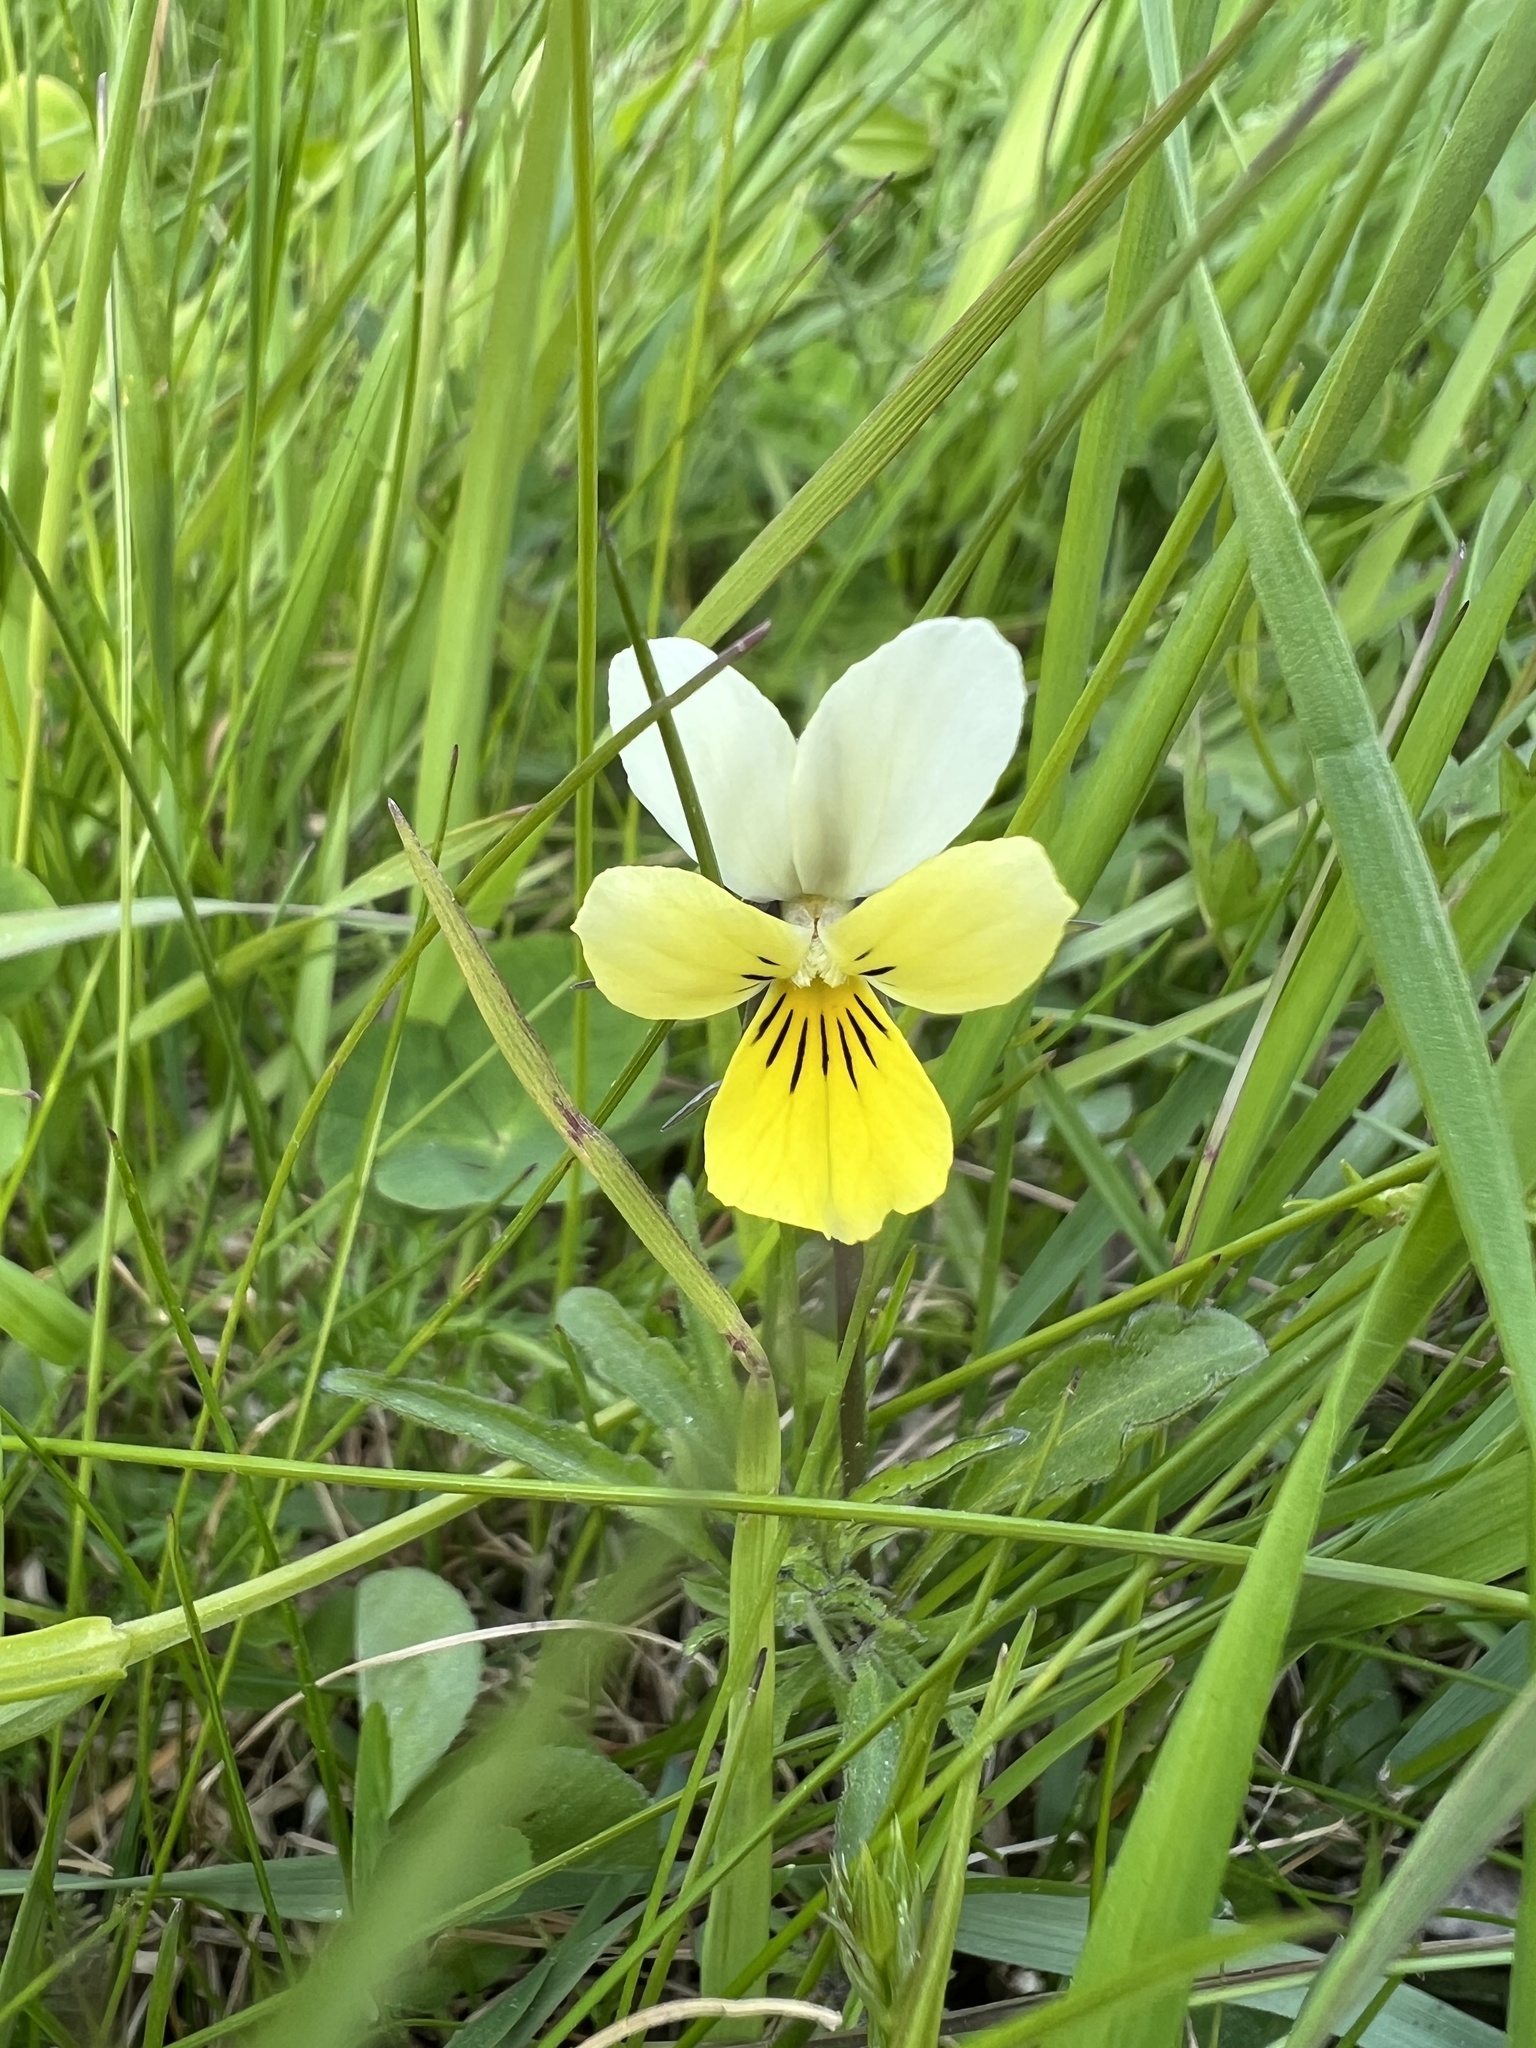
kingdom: Plantae
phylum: Tracheophyta
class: Magnoliopsida
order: Malpighiales
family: Violaceae
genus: Viola
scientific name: Viola tricolor
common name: Pansy
